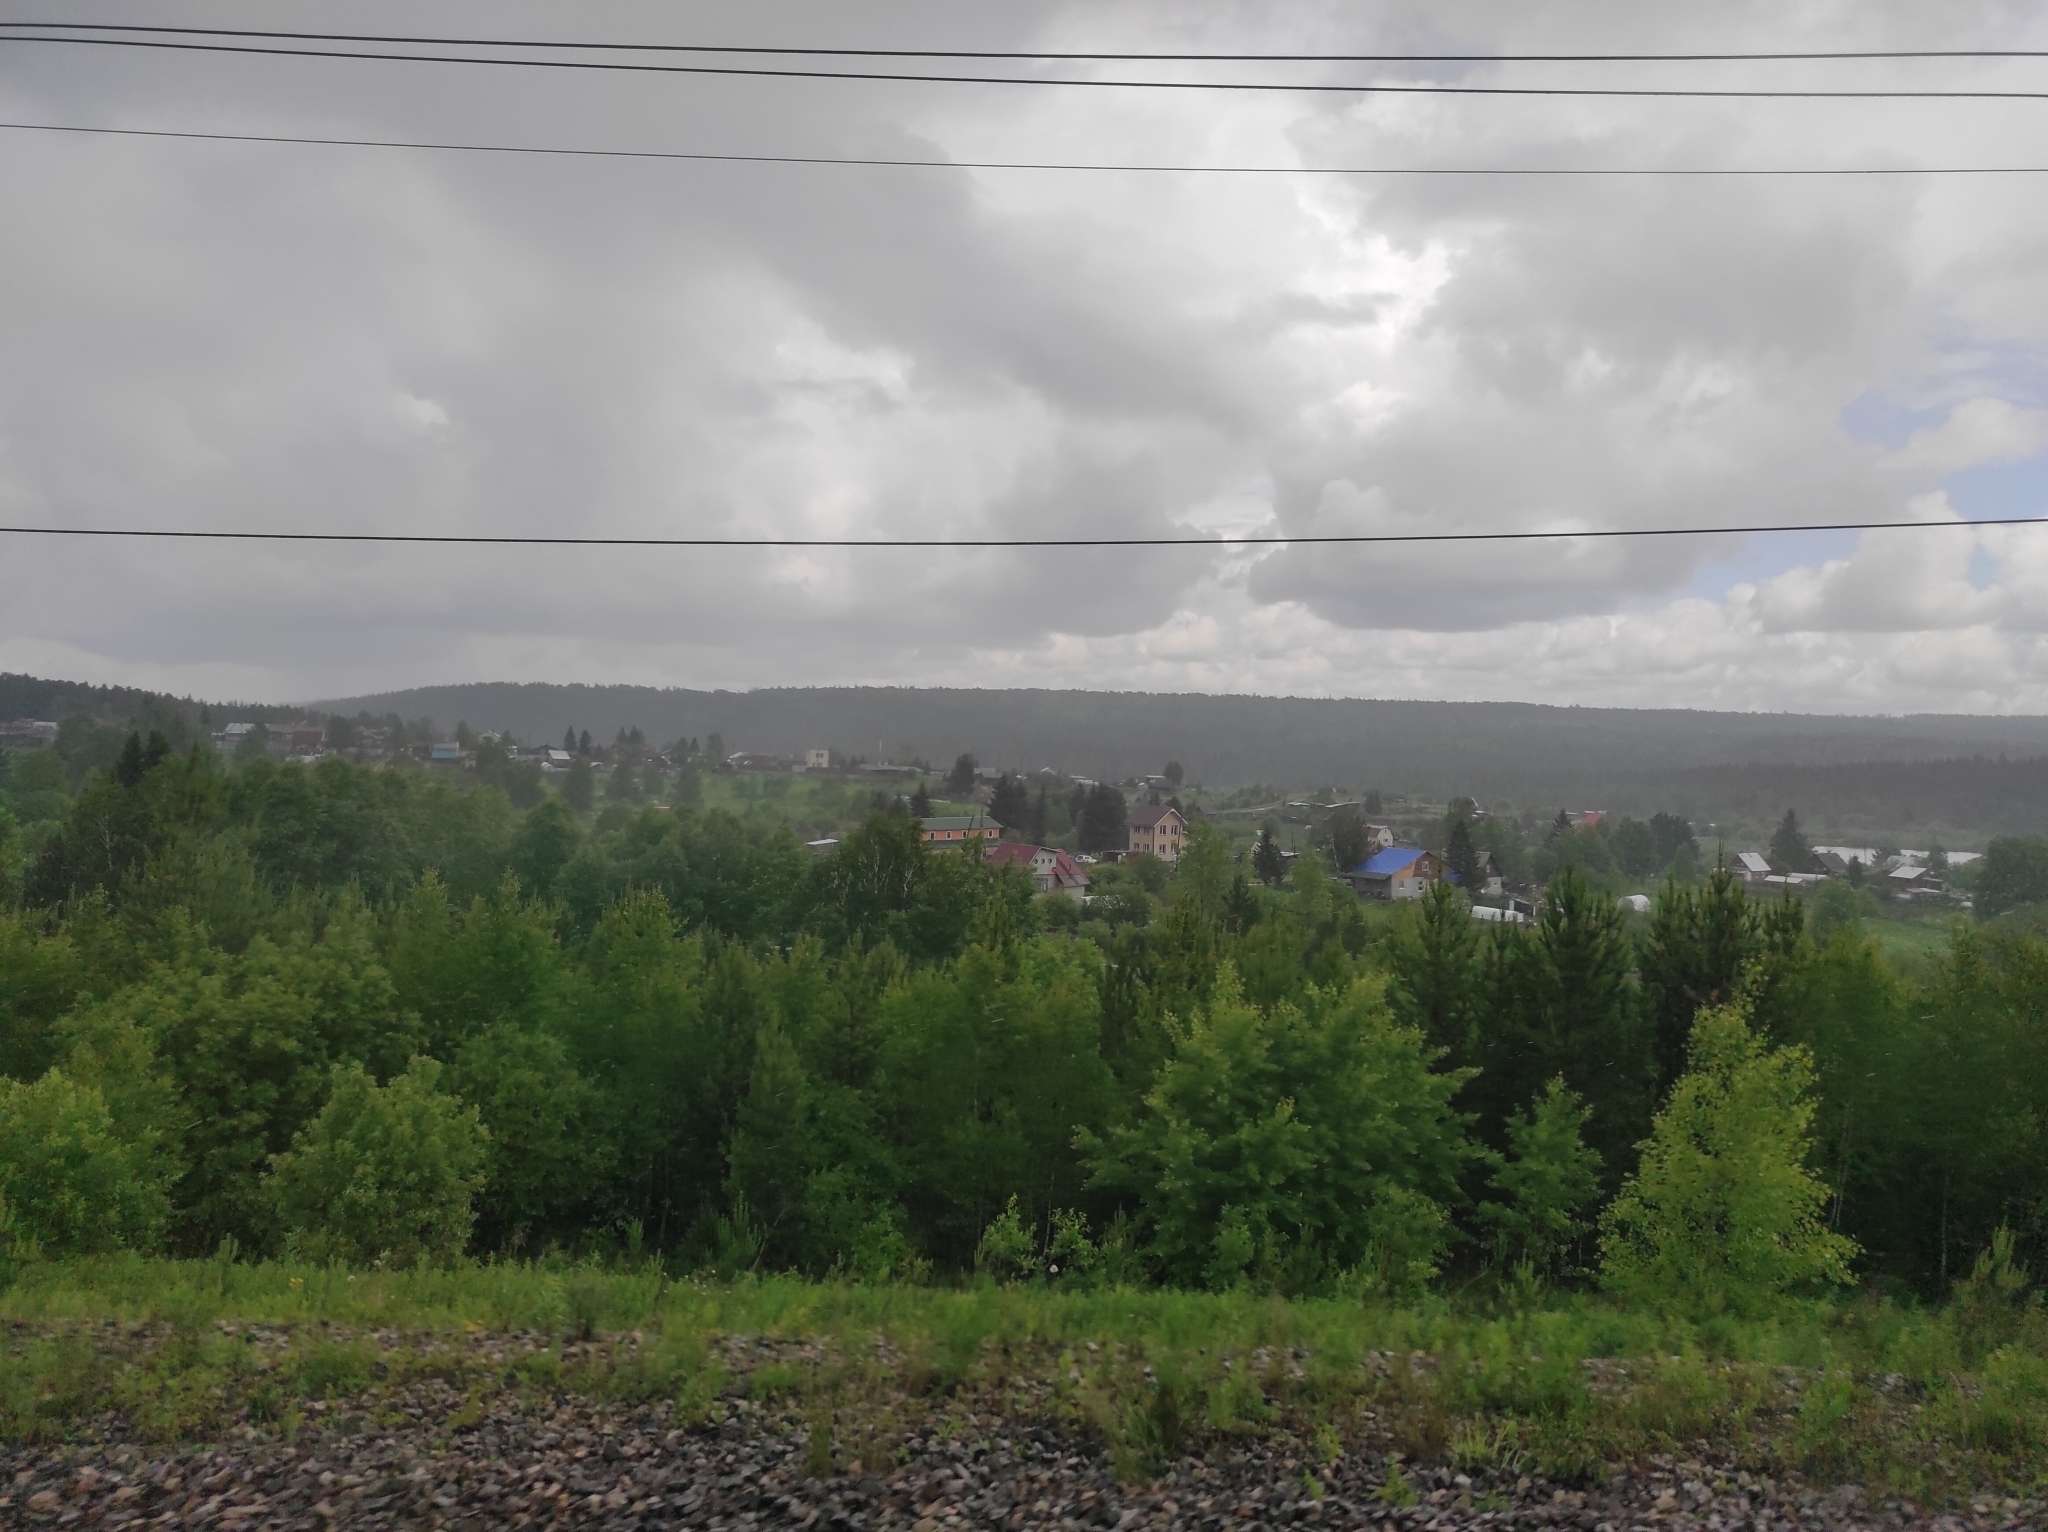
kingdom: Plantae
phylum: Tracheophyta
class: Pinopsida
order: Pinales
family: Pinaceae
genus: Picea
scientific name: Picea obovata
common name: Siberian spruce
